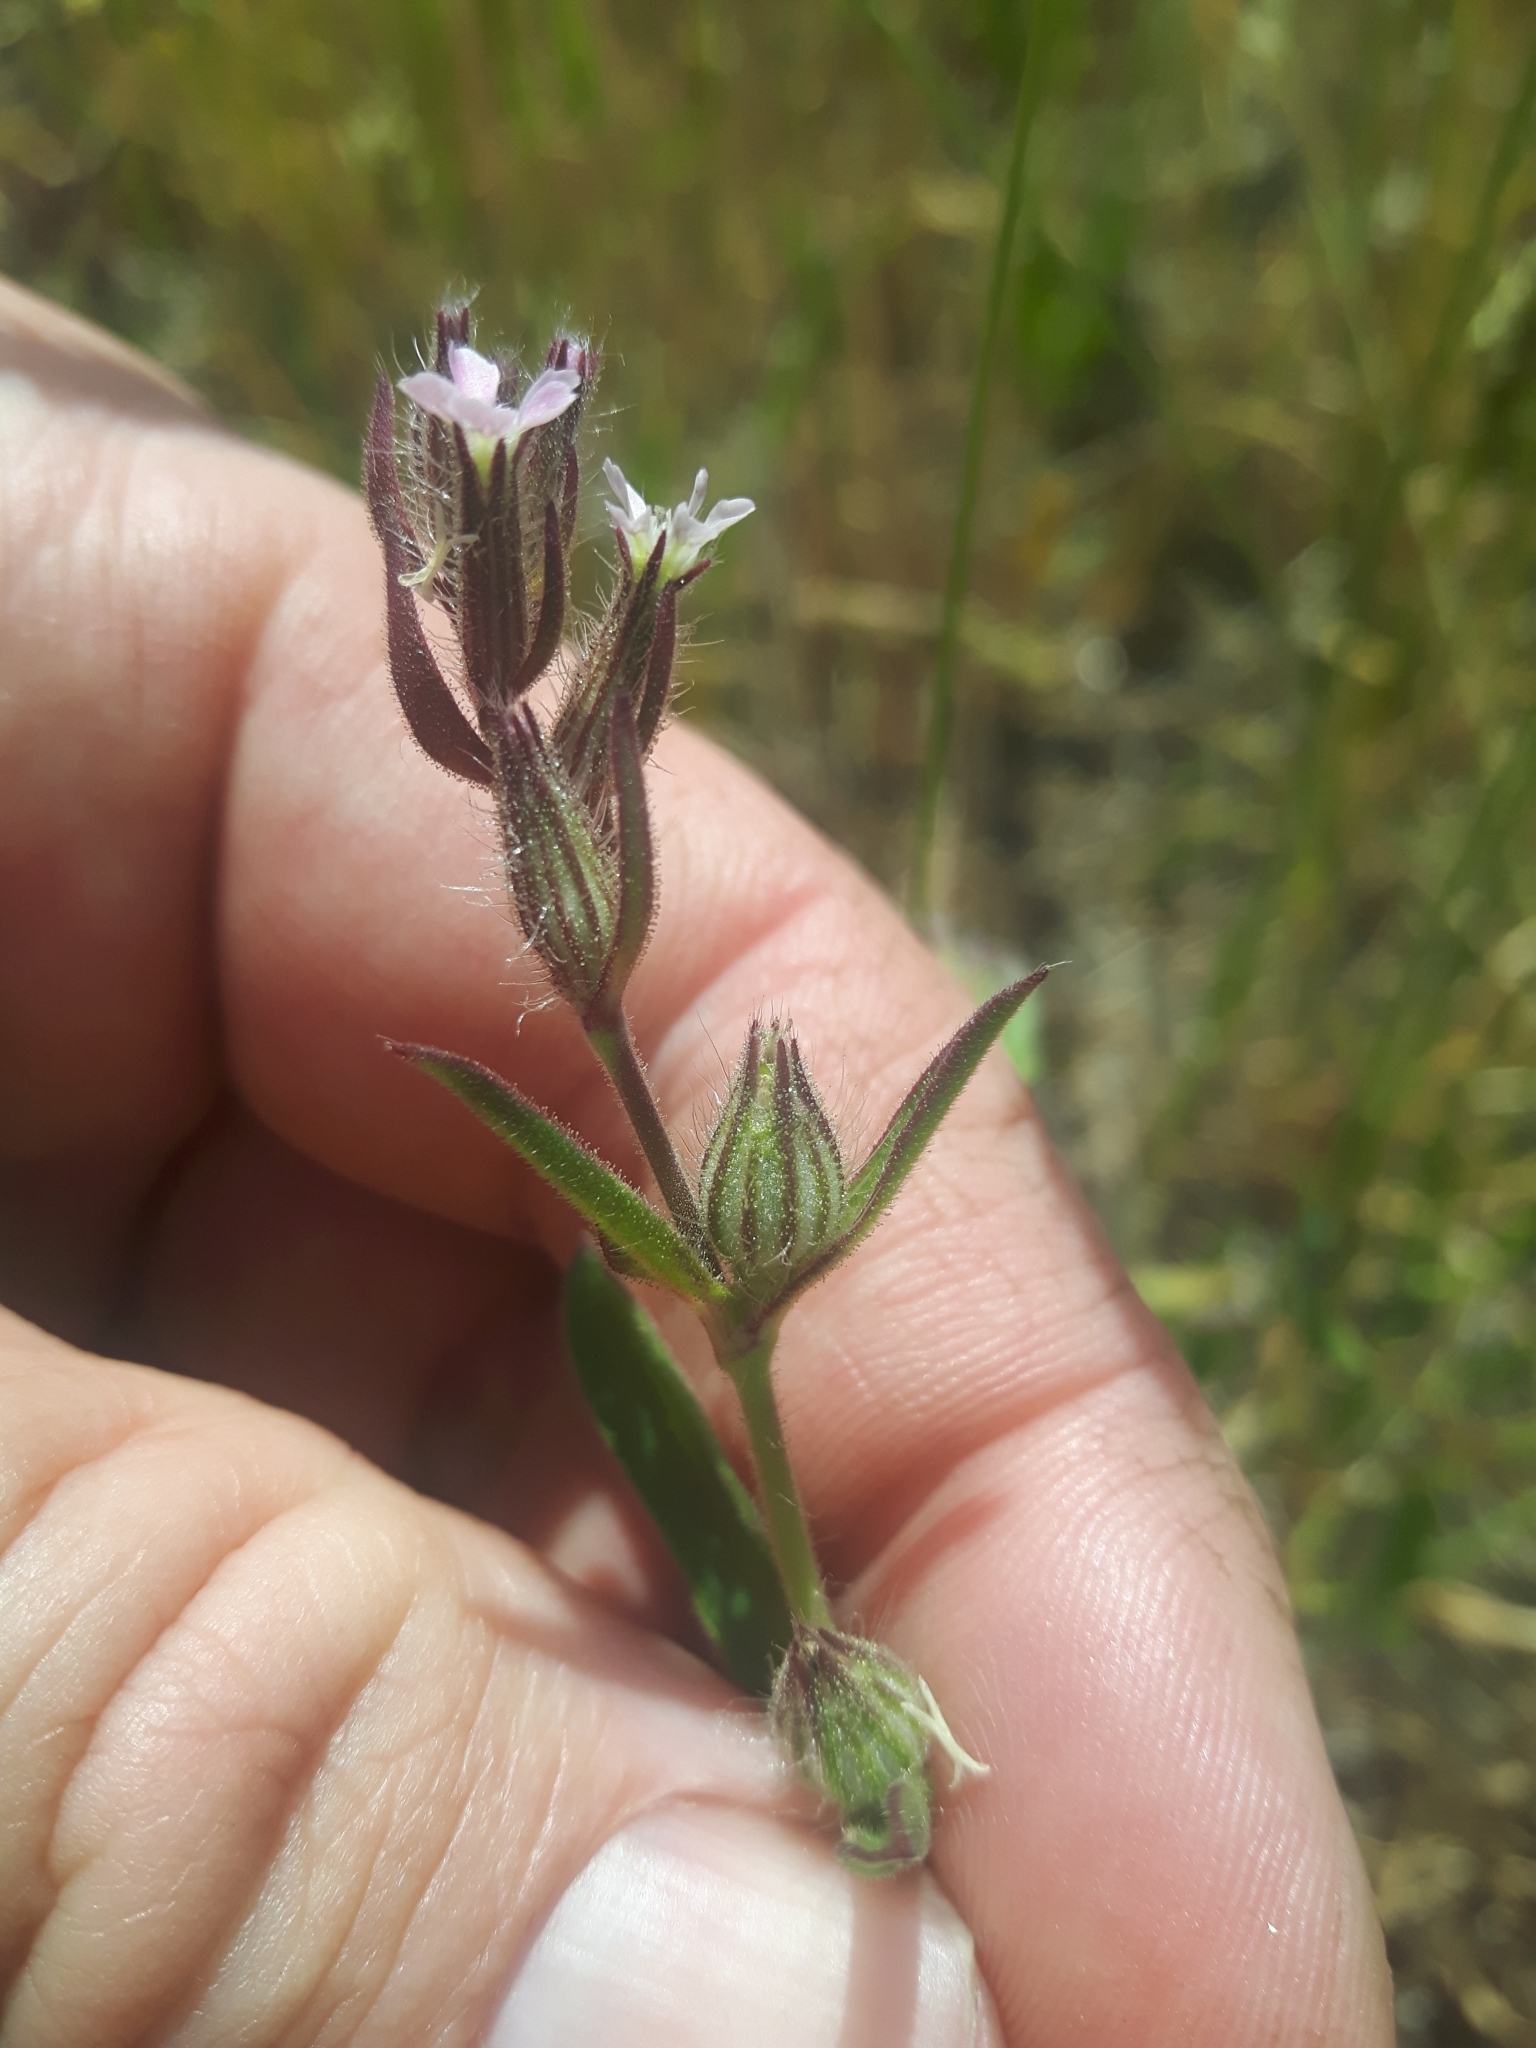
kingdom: Plantae
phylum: Tracheophyta
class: Magnoliopsida
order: Caryophyllales
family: Caryophyllaceae
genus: Silene
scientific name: Silene gallica
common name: Small-flowered catchfly
